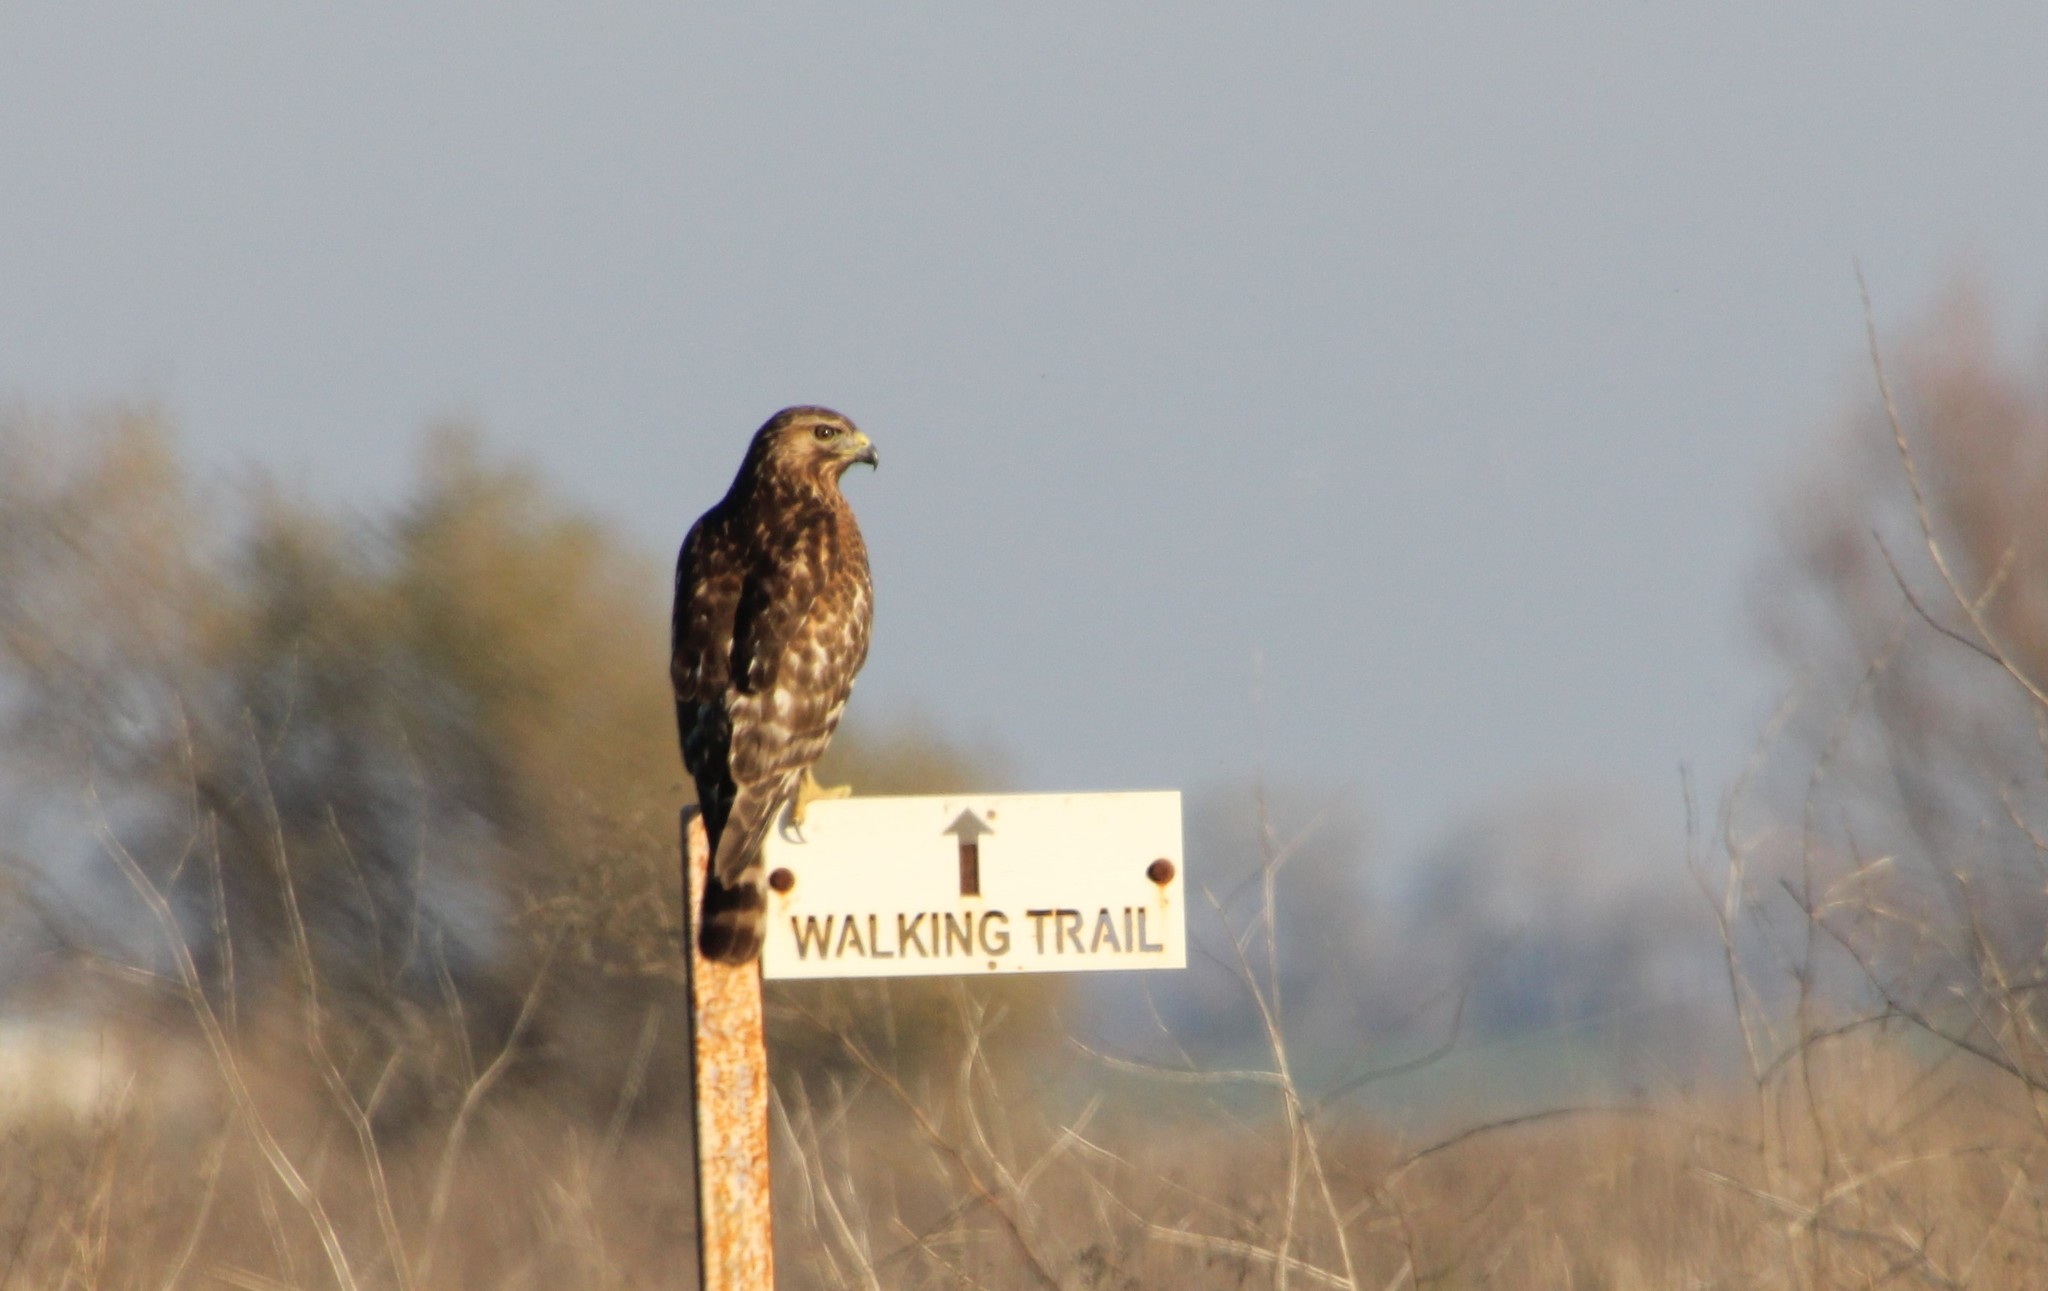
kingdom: Animalia
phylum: Chordata
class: Aves
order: Accipitriformes
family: Accipitridae
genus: Buteo
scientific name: Buteo lineatus
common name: Red-shouldered hawk
